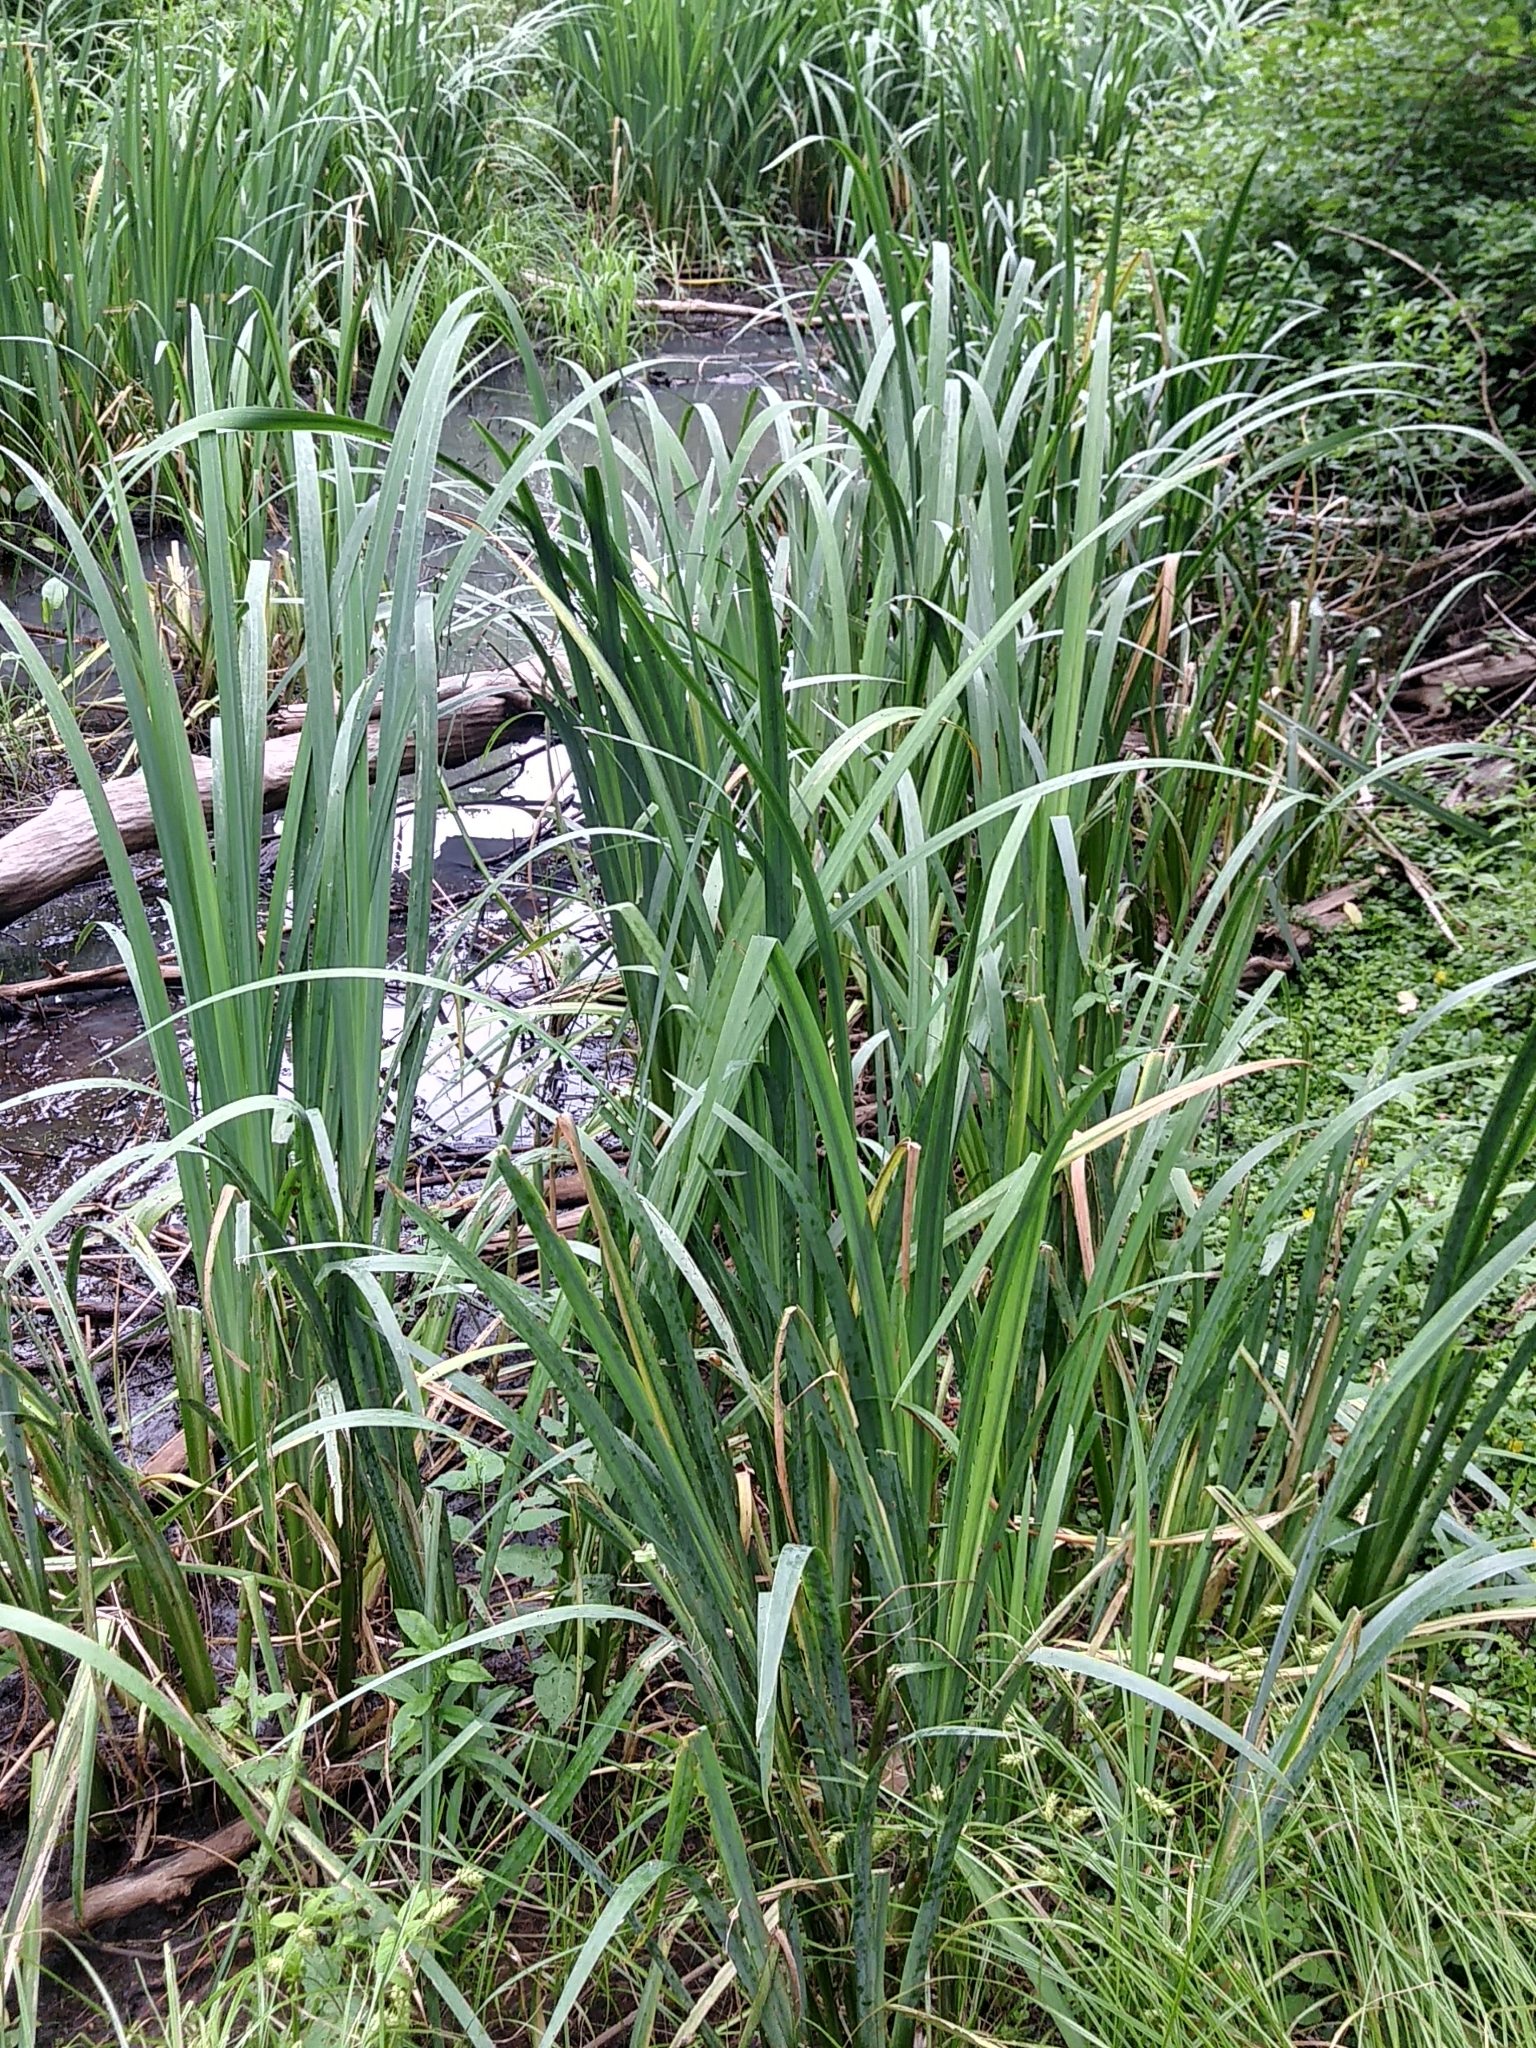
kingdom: Plantae
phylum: Tracheophyta
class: Liliopsida
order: Asparagales
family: Iridaceae
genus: Iris
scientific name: Iris pseudacorus
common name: Yellow flag
